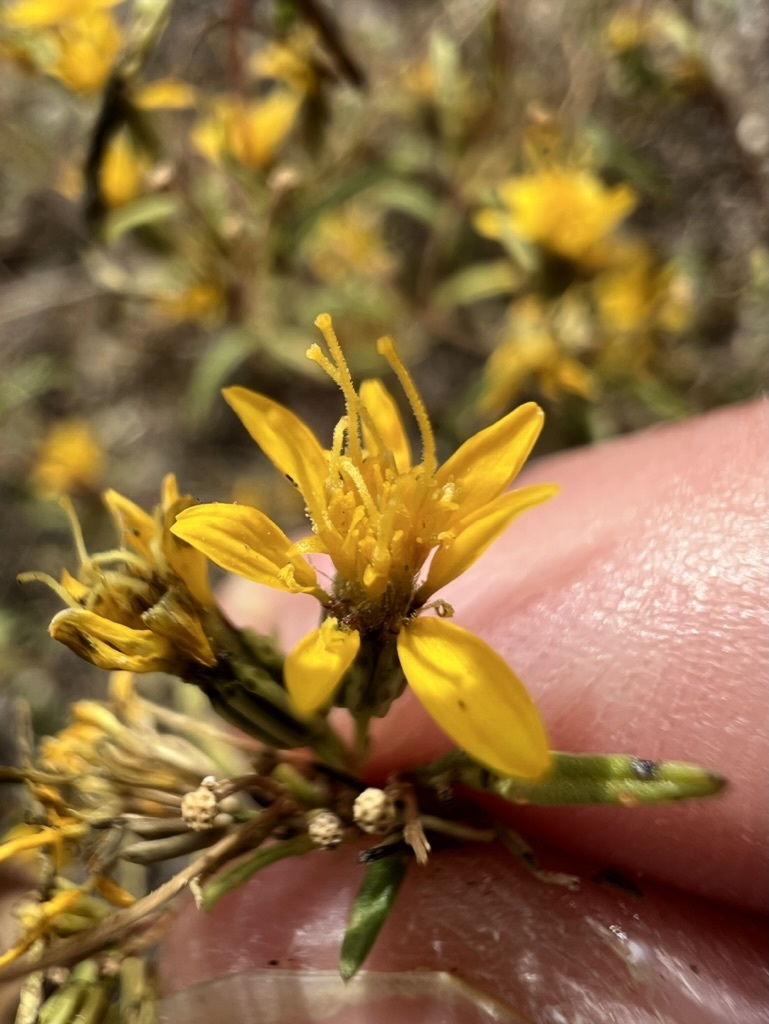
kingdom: Plantae
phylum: Tracheophyta
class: Magnoliopsida
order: Asterales
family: Asteraceae
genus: Pectis
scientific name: Pectis papposa
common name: Many-bristle chinchweed
